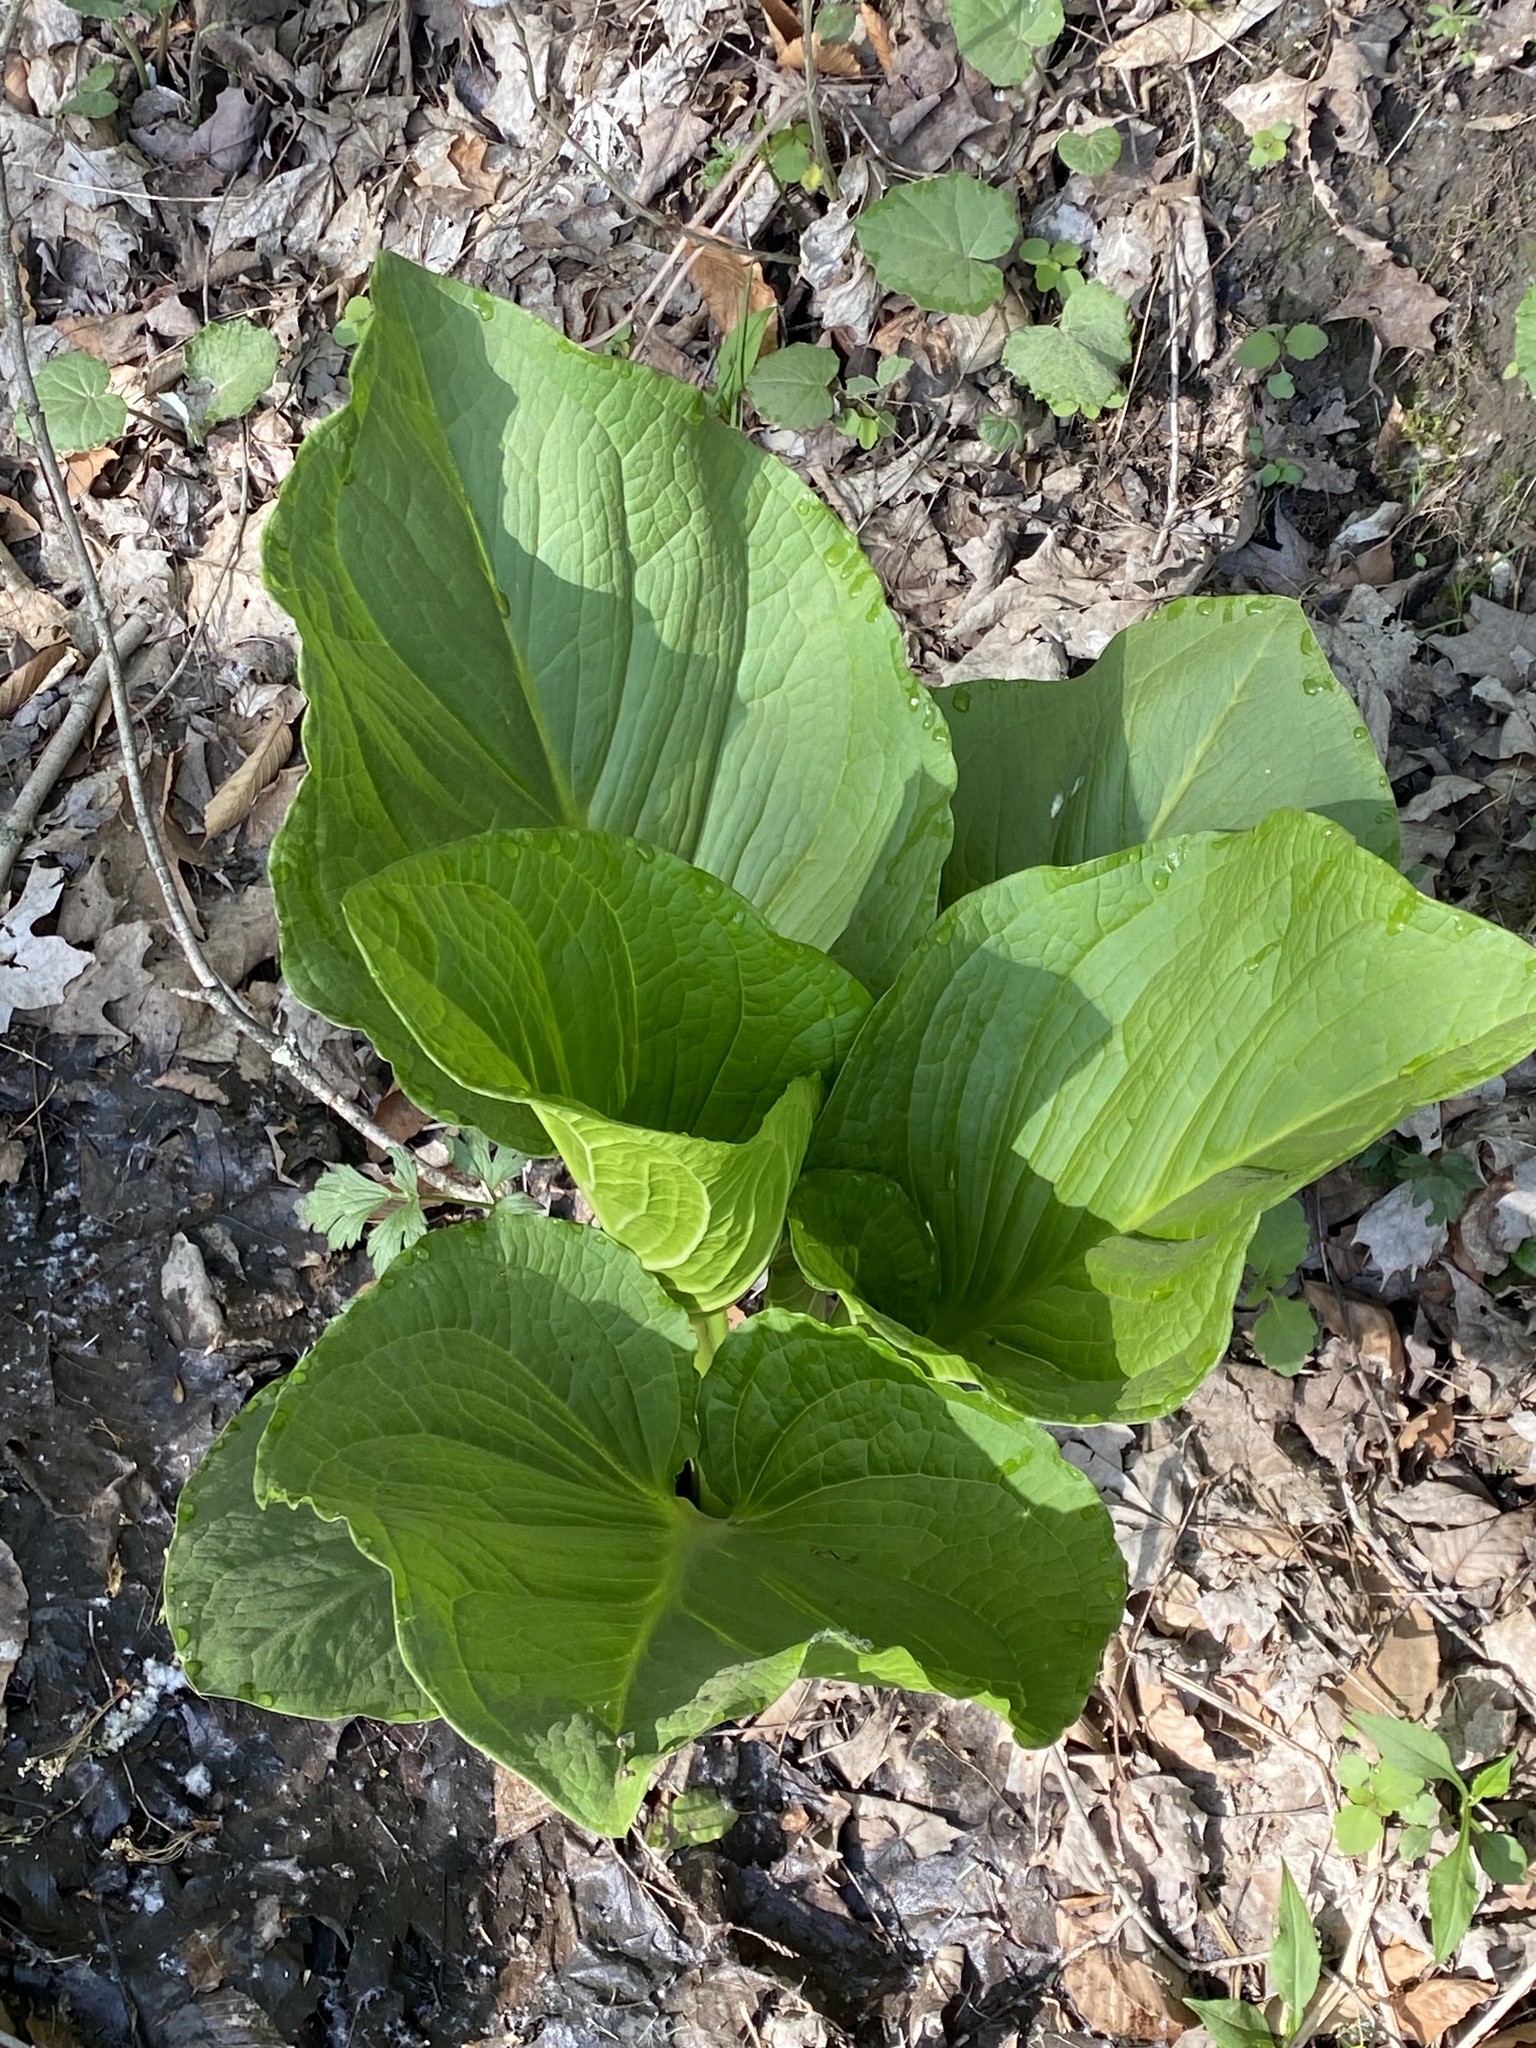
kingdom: Plantae
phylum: Tracheophyta
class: Liliopsida
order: Alismatales
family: Araceae
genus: Symplocarpus
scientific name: Symplocarpus foetidus
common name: Eastern skunk cabbage
